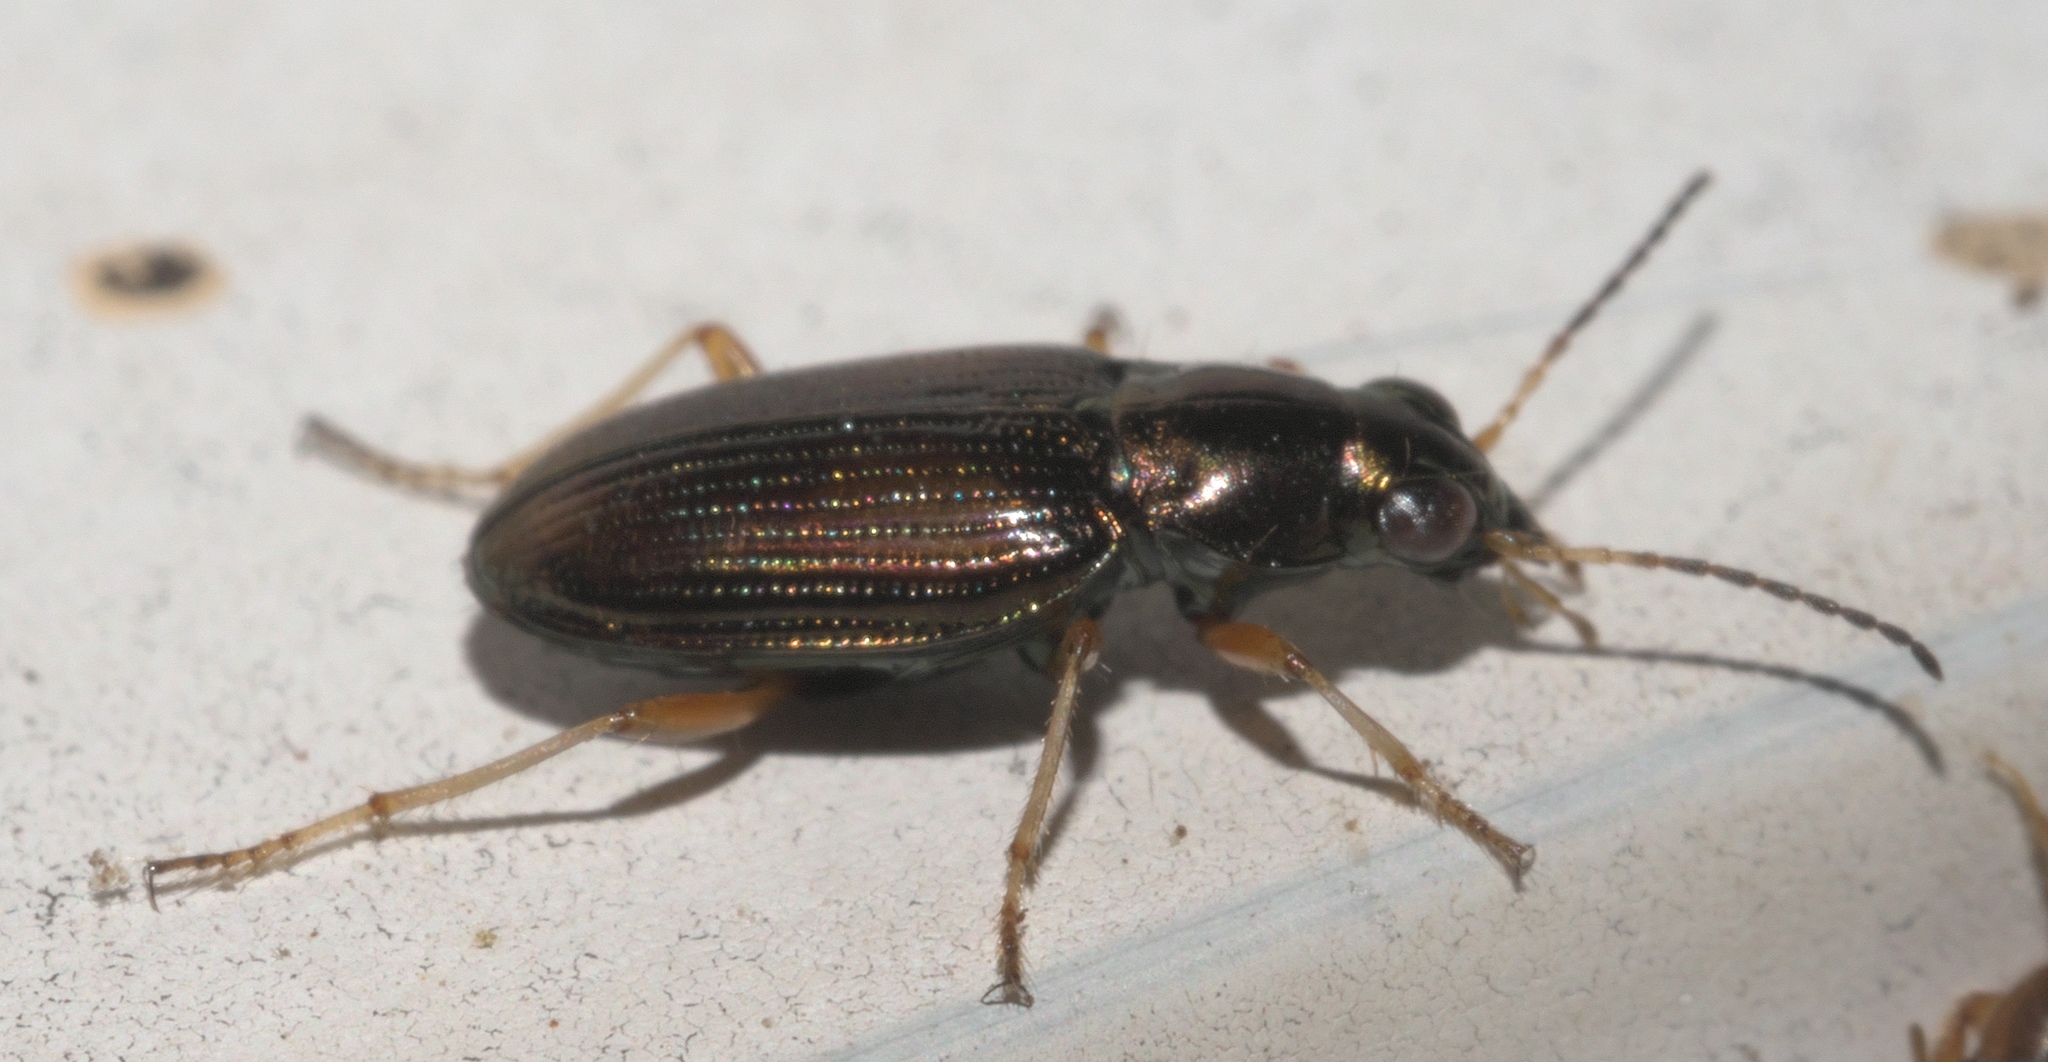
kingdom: Animalia
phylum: Arthropoda
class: Insecta
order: Coleoptera
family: Carabidae
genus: Bembidion
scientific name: Bembidion confusum
